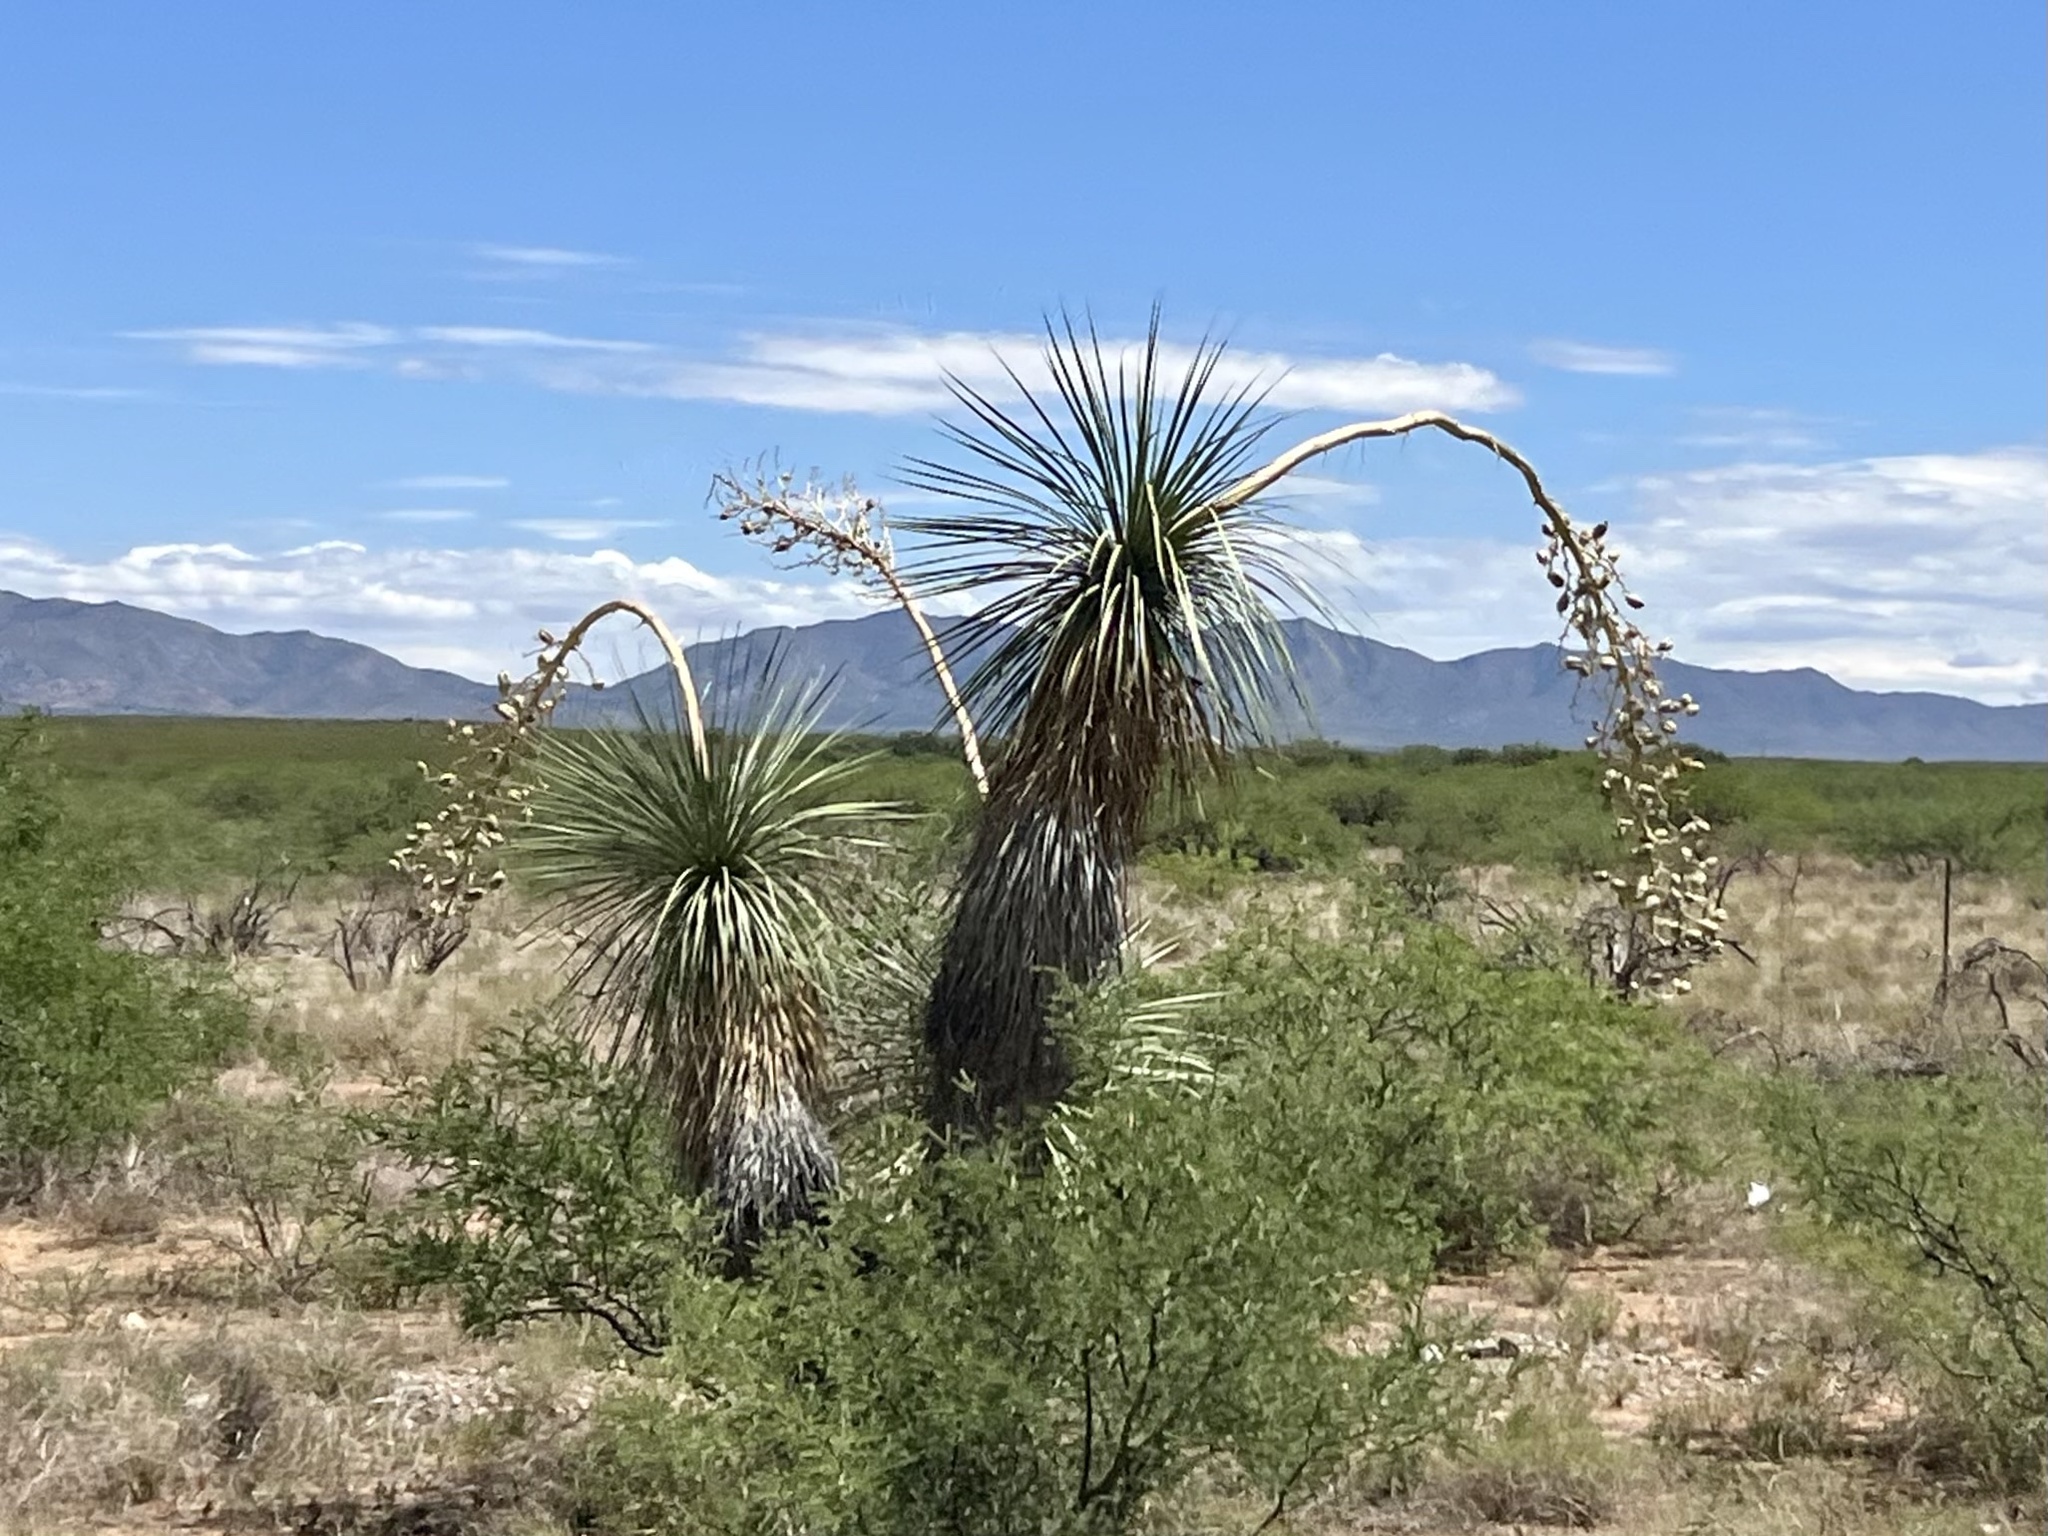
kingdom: Plantae
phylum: Tracheophyta
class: Liliopsida
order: Asparagales
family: Asparagaceae
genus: Yucca
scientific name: Yucca elata
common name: Palmella
